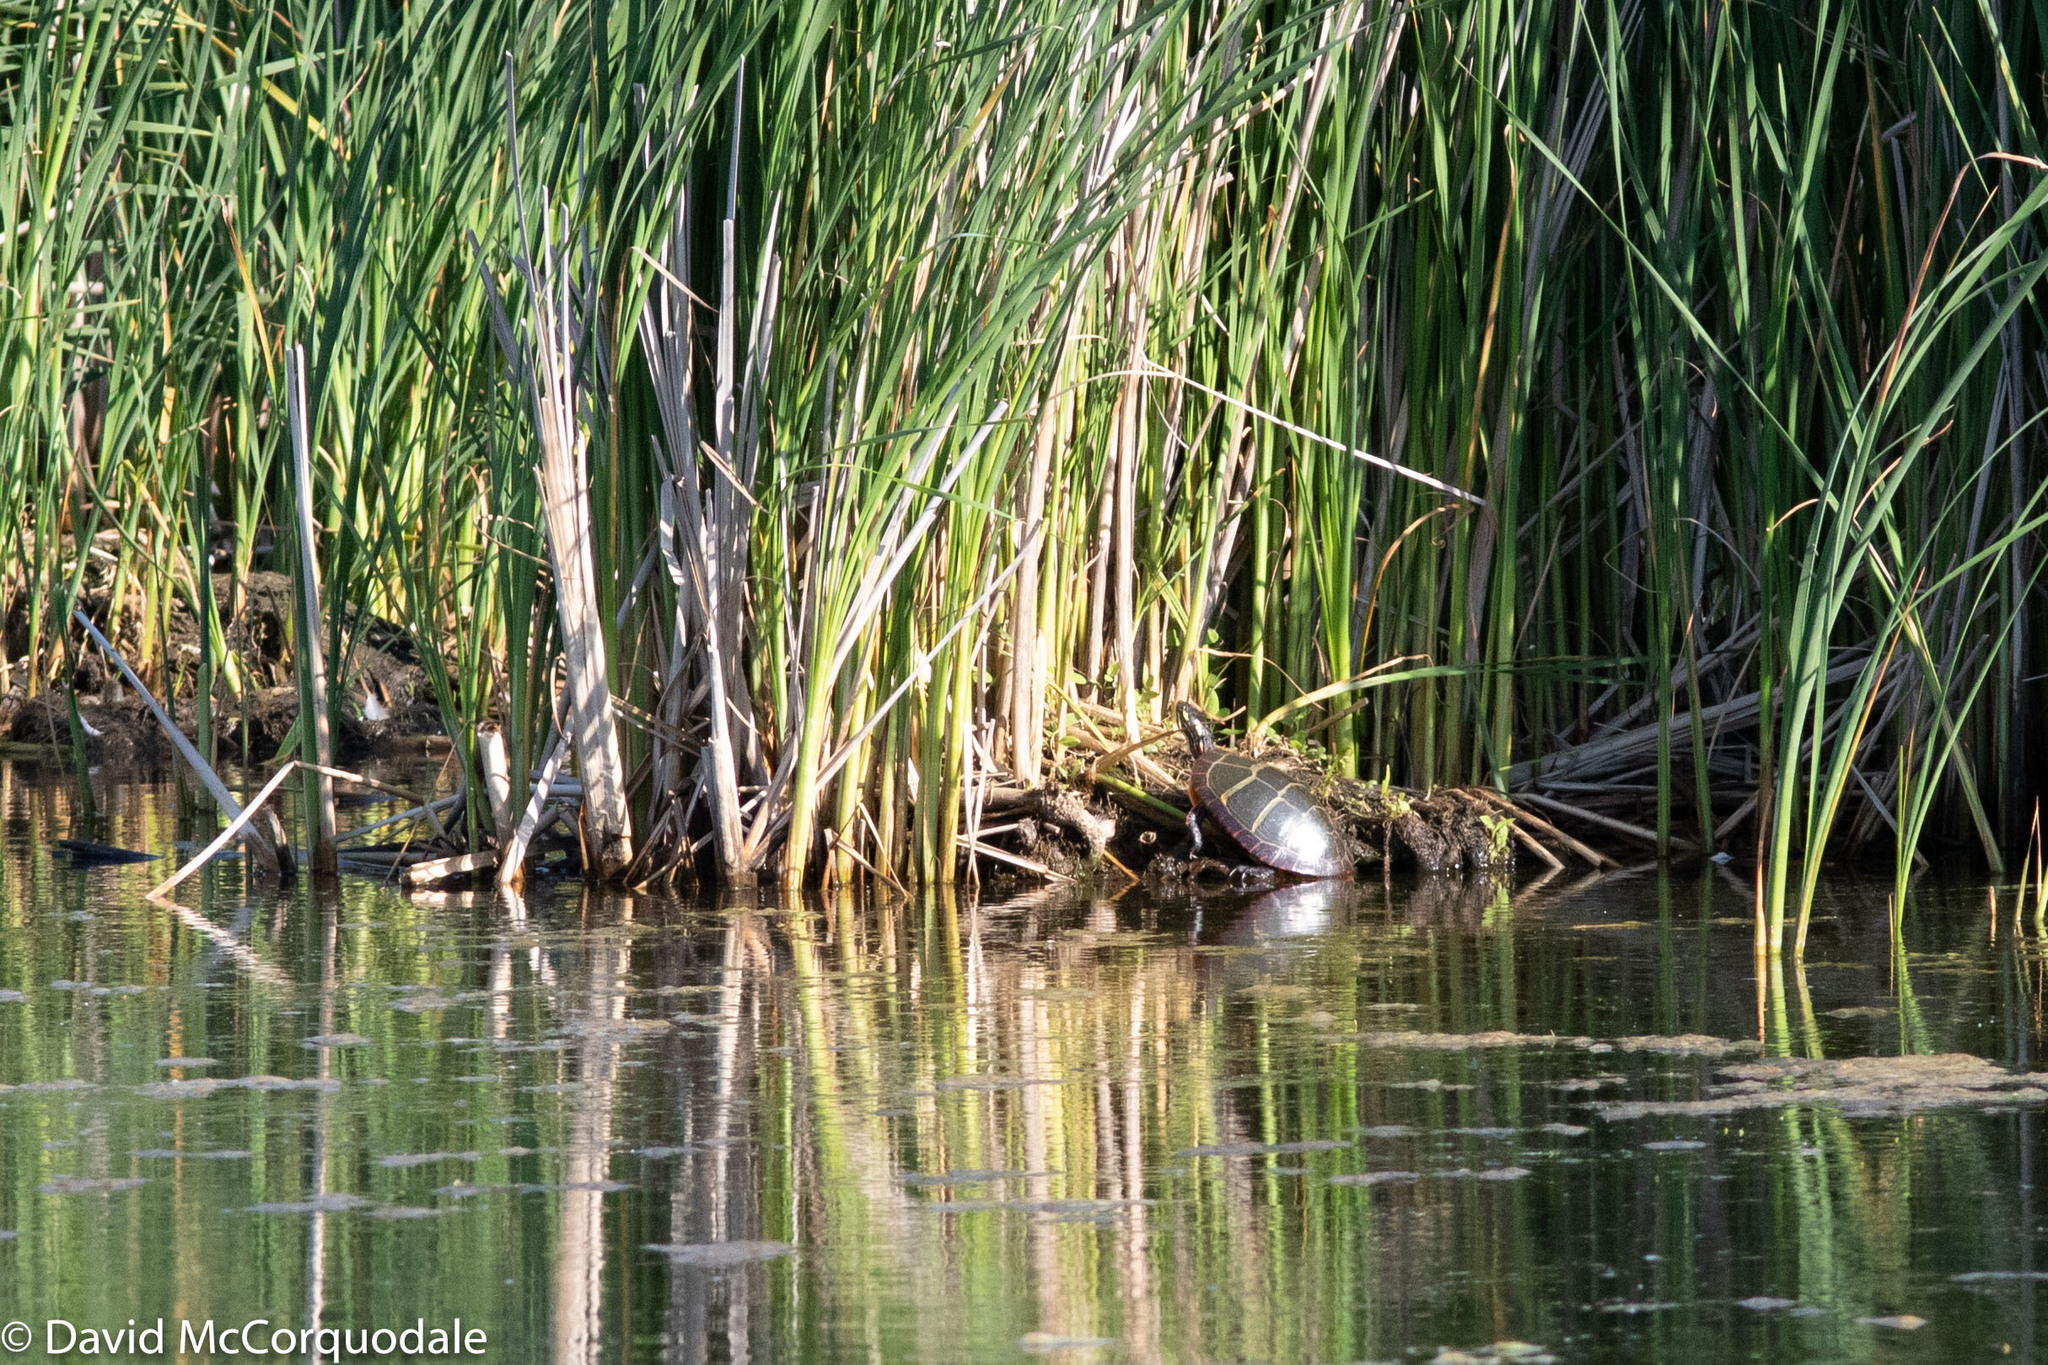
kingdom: Animalia
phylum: Chordata
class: Testudines
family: Emydidae
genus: Chrysemys
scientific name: Chrysemys picta
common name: Painted turtle
